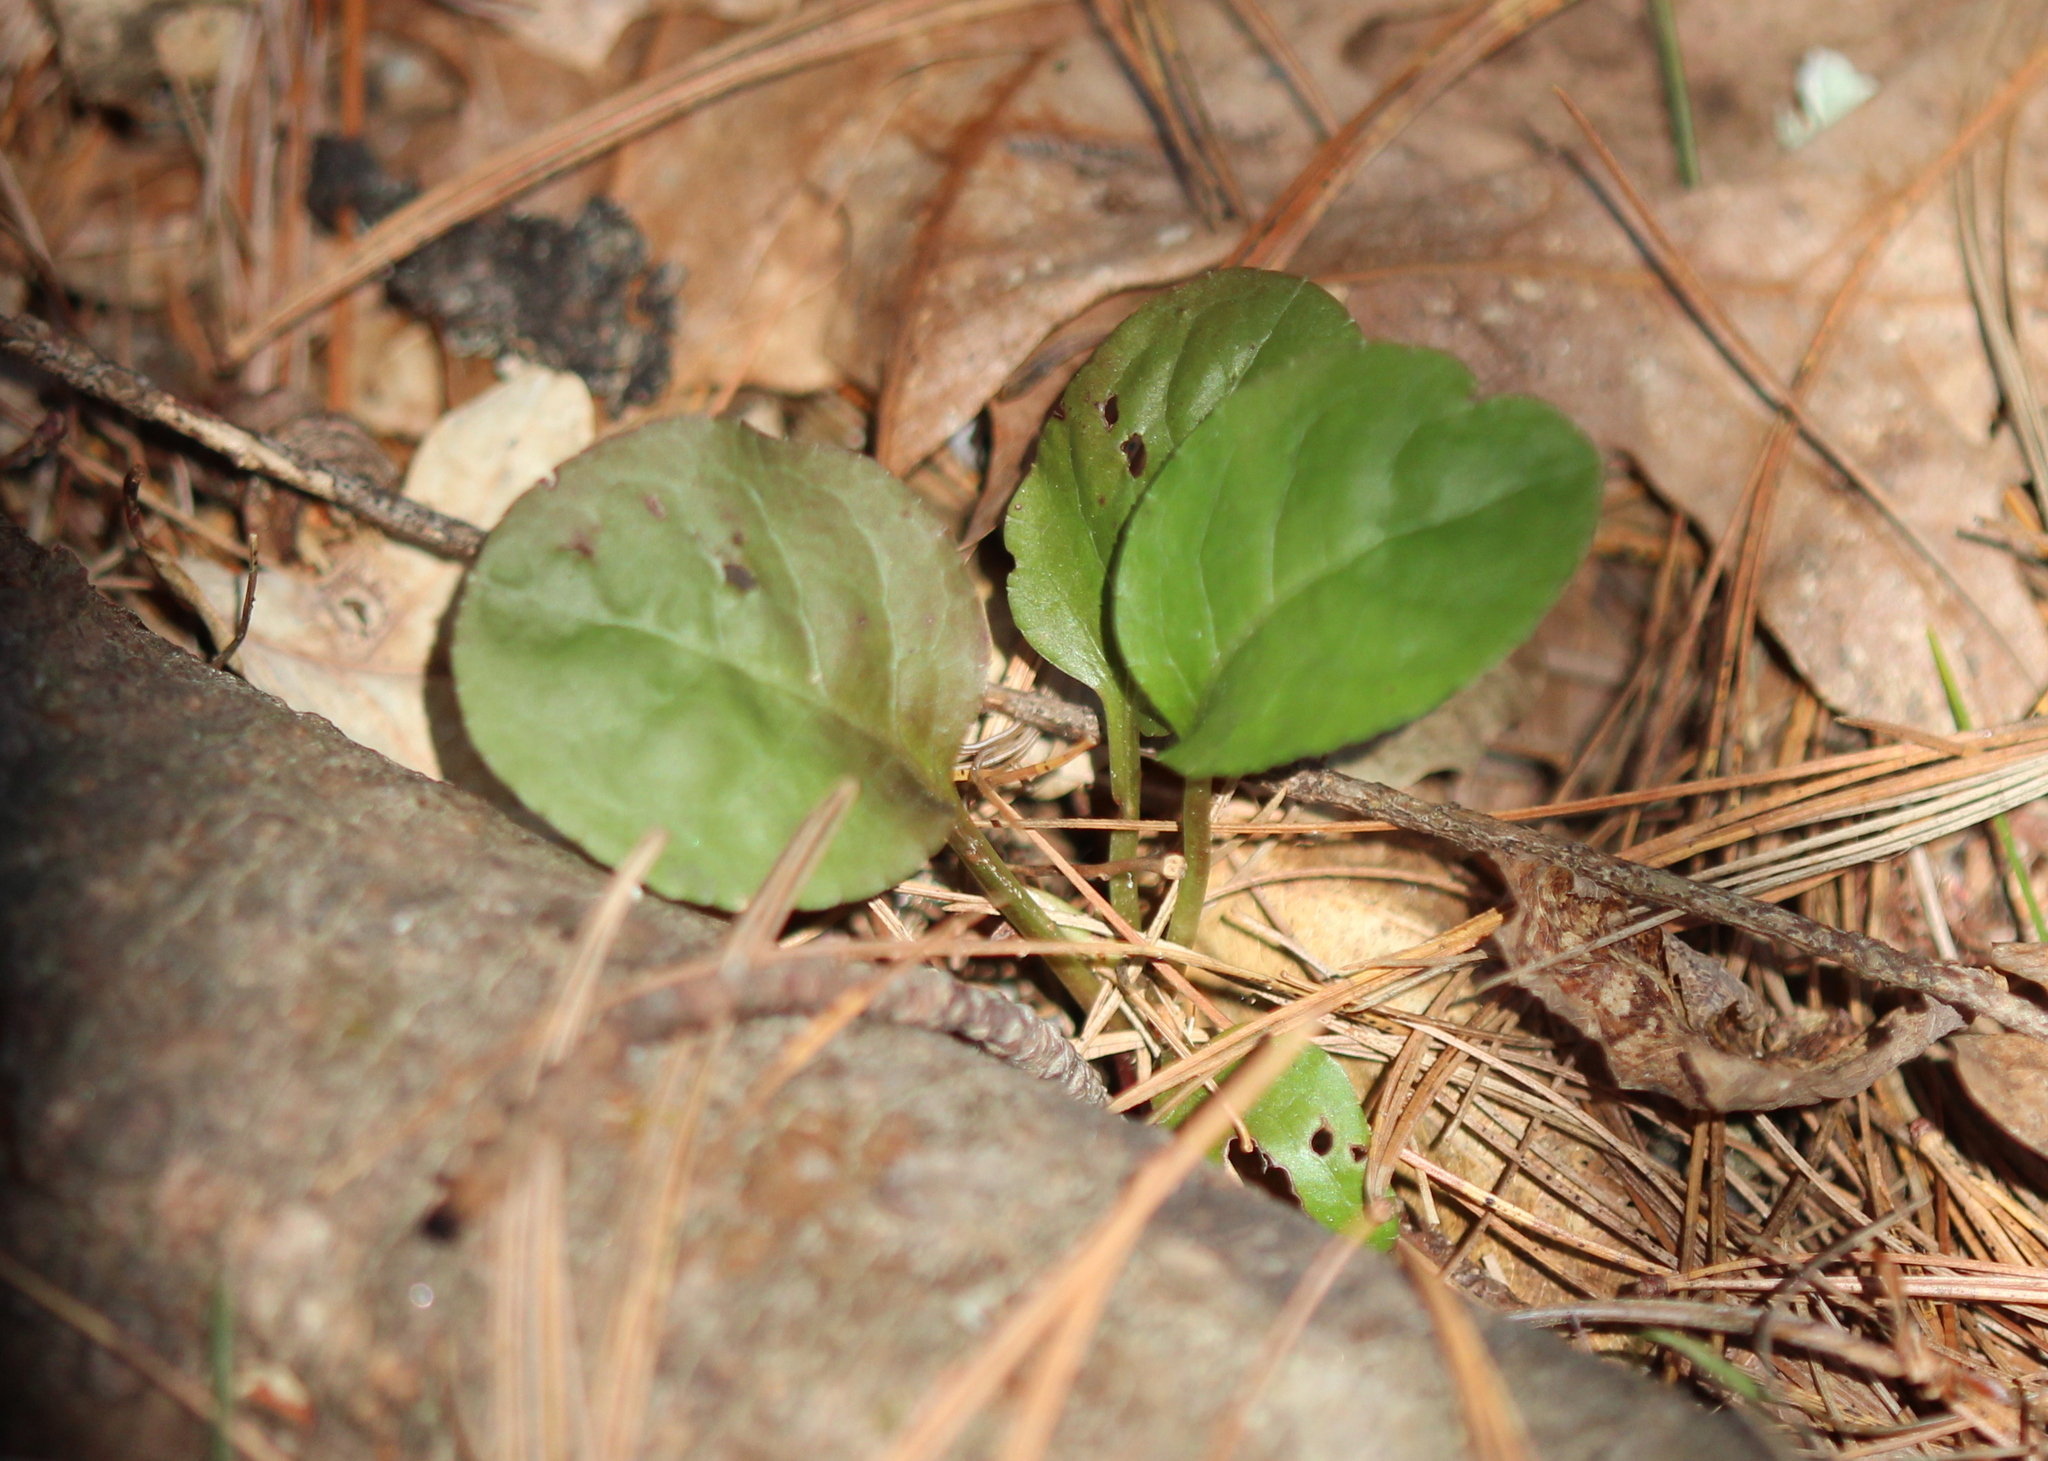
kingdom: Plantae
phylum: Tracheophyta
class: Magnoliopsida
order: Ericales
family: Ericaceae
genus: Pyrola
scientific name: Pyrola elliptica
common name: Shinleaf
